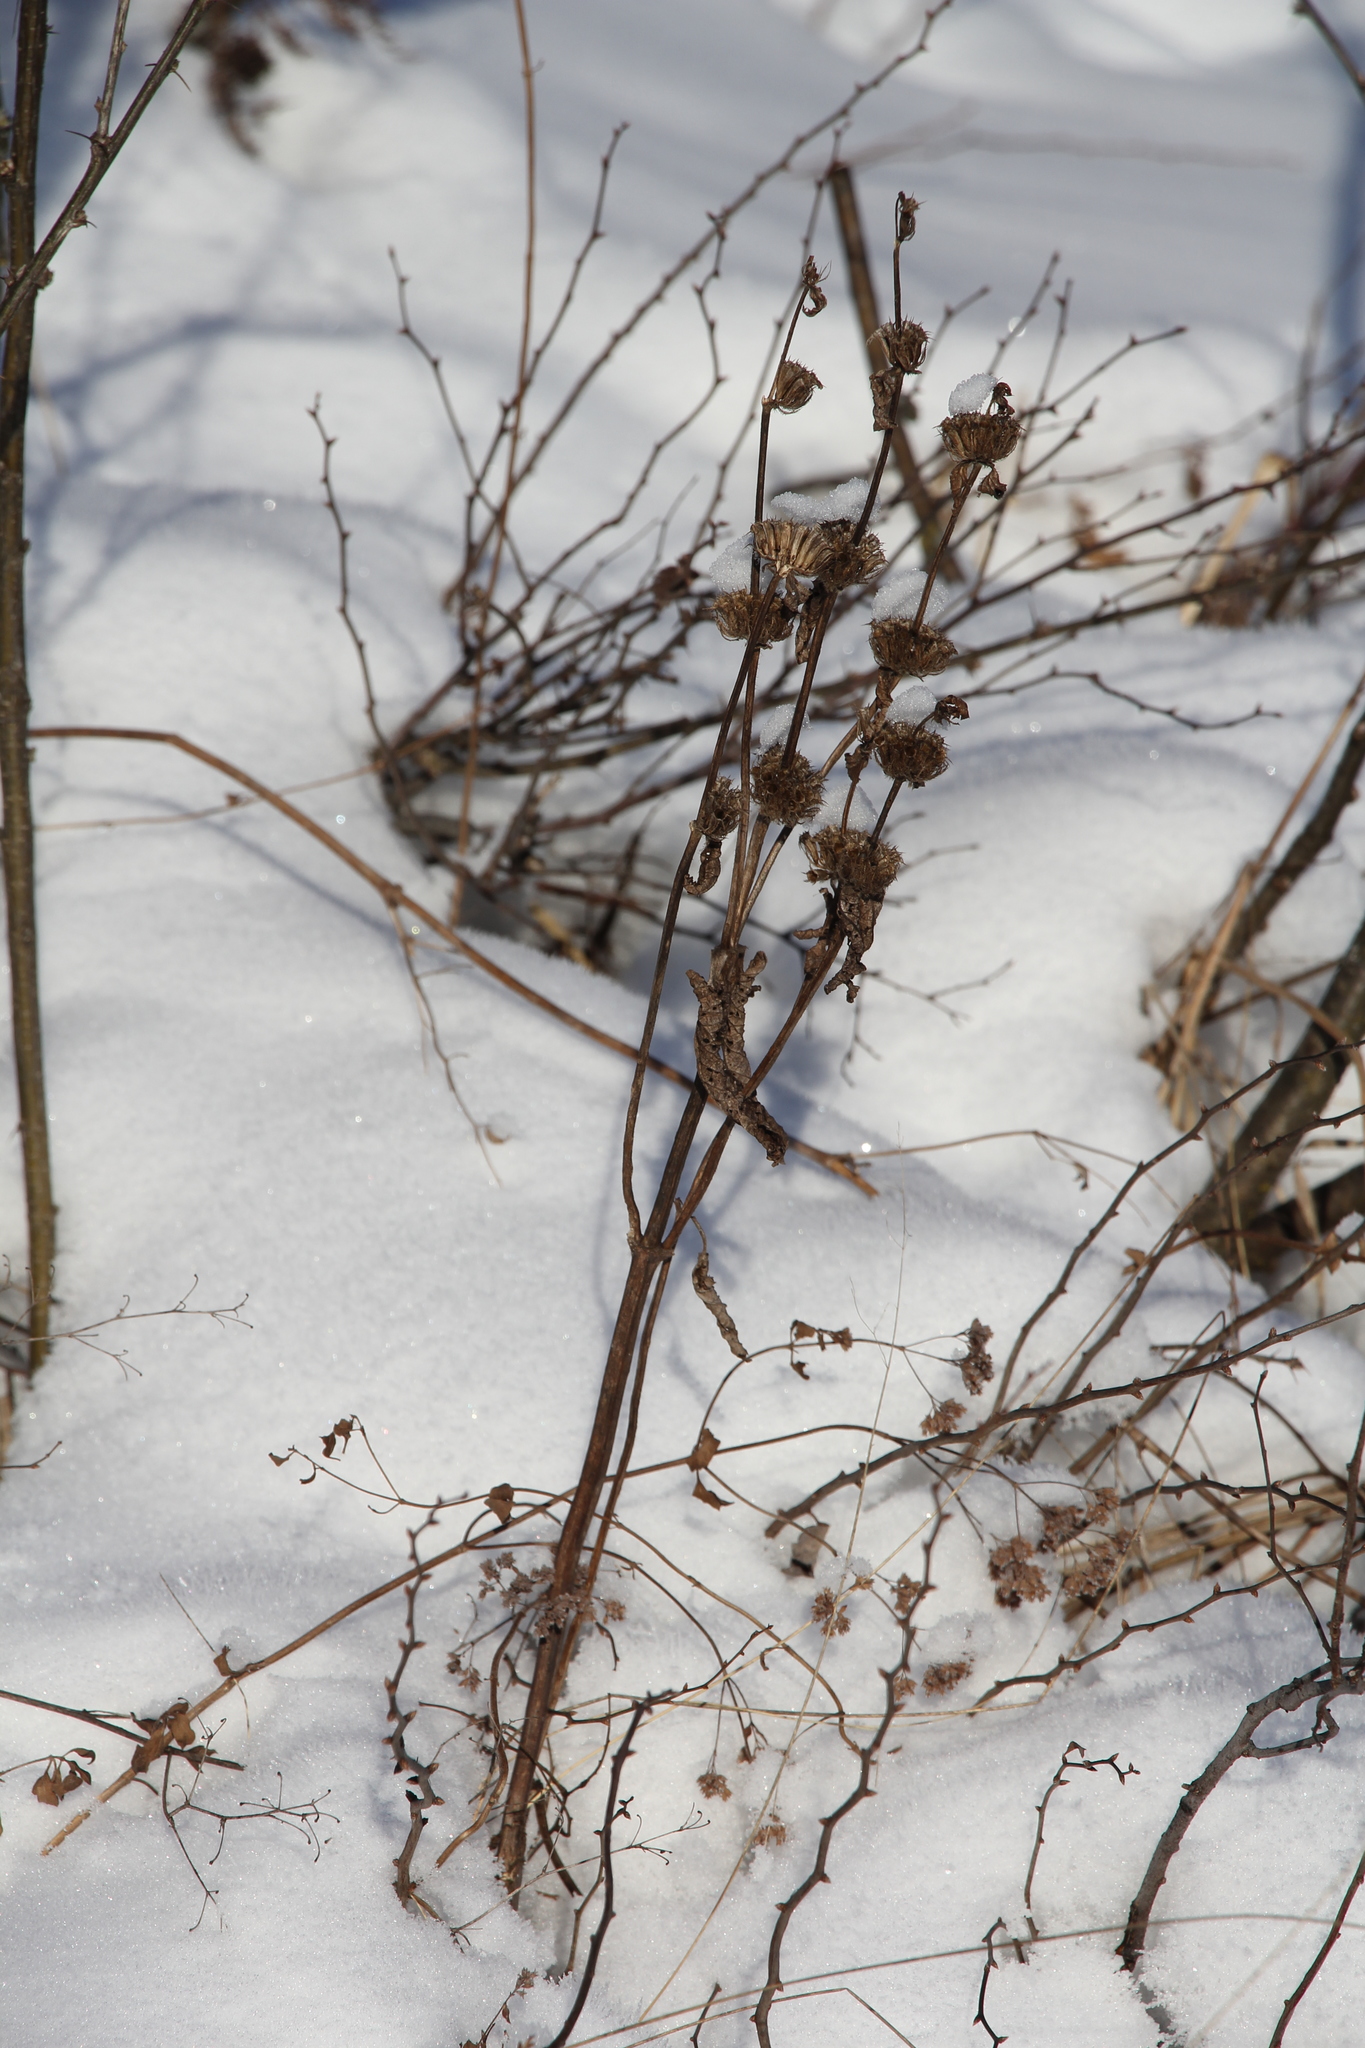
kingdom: Plantae
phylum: Tracheophyta
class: Magnoliopsida
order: Lamiales
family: Lamiaceae
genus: Phlomoides
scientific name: Phlomoides tuberosa
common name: Tuberous jerusalem sage
